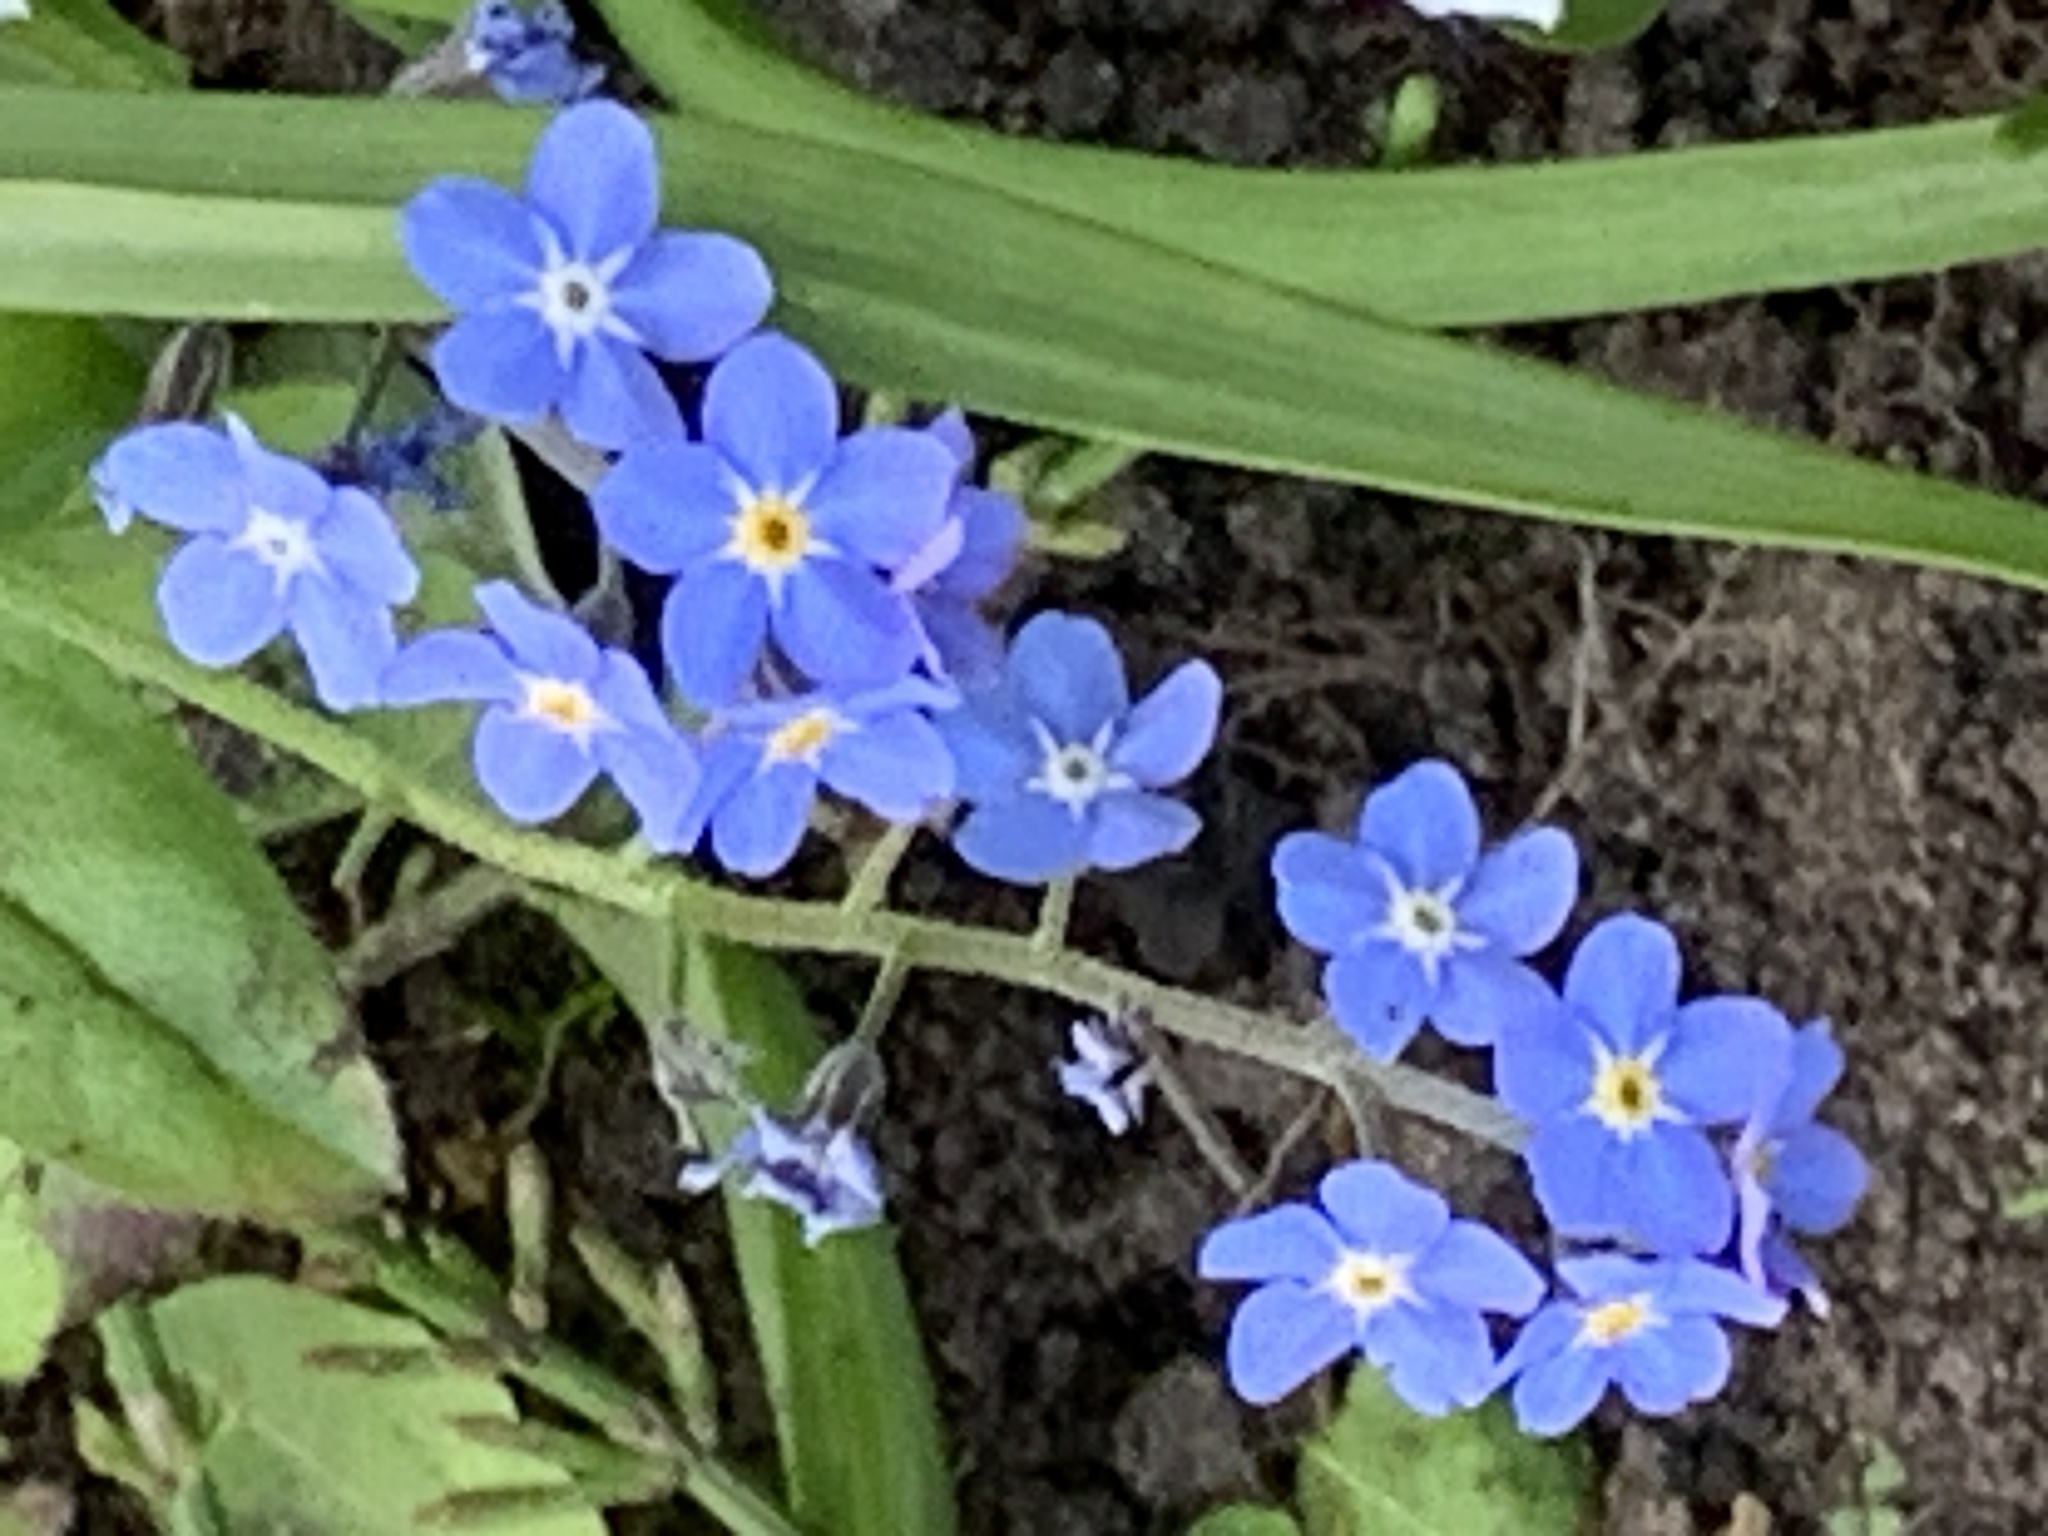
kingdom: Plantae
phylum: Tracheophyta
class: Magnoliopsida
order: Boraginales
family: Boraginaceae
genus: Myosotis
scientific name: Myosotis sylvatica
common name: Wood forget-me-not
